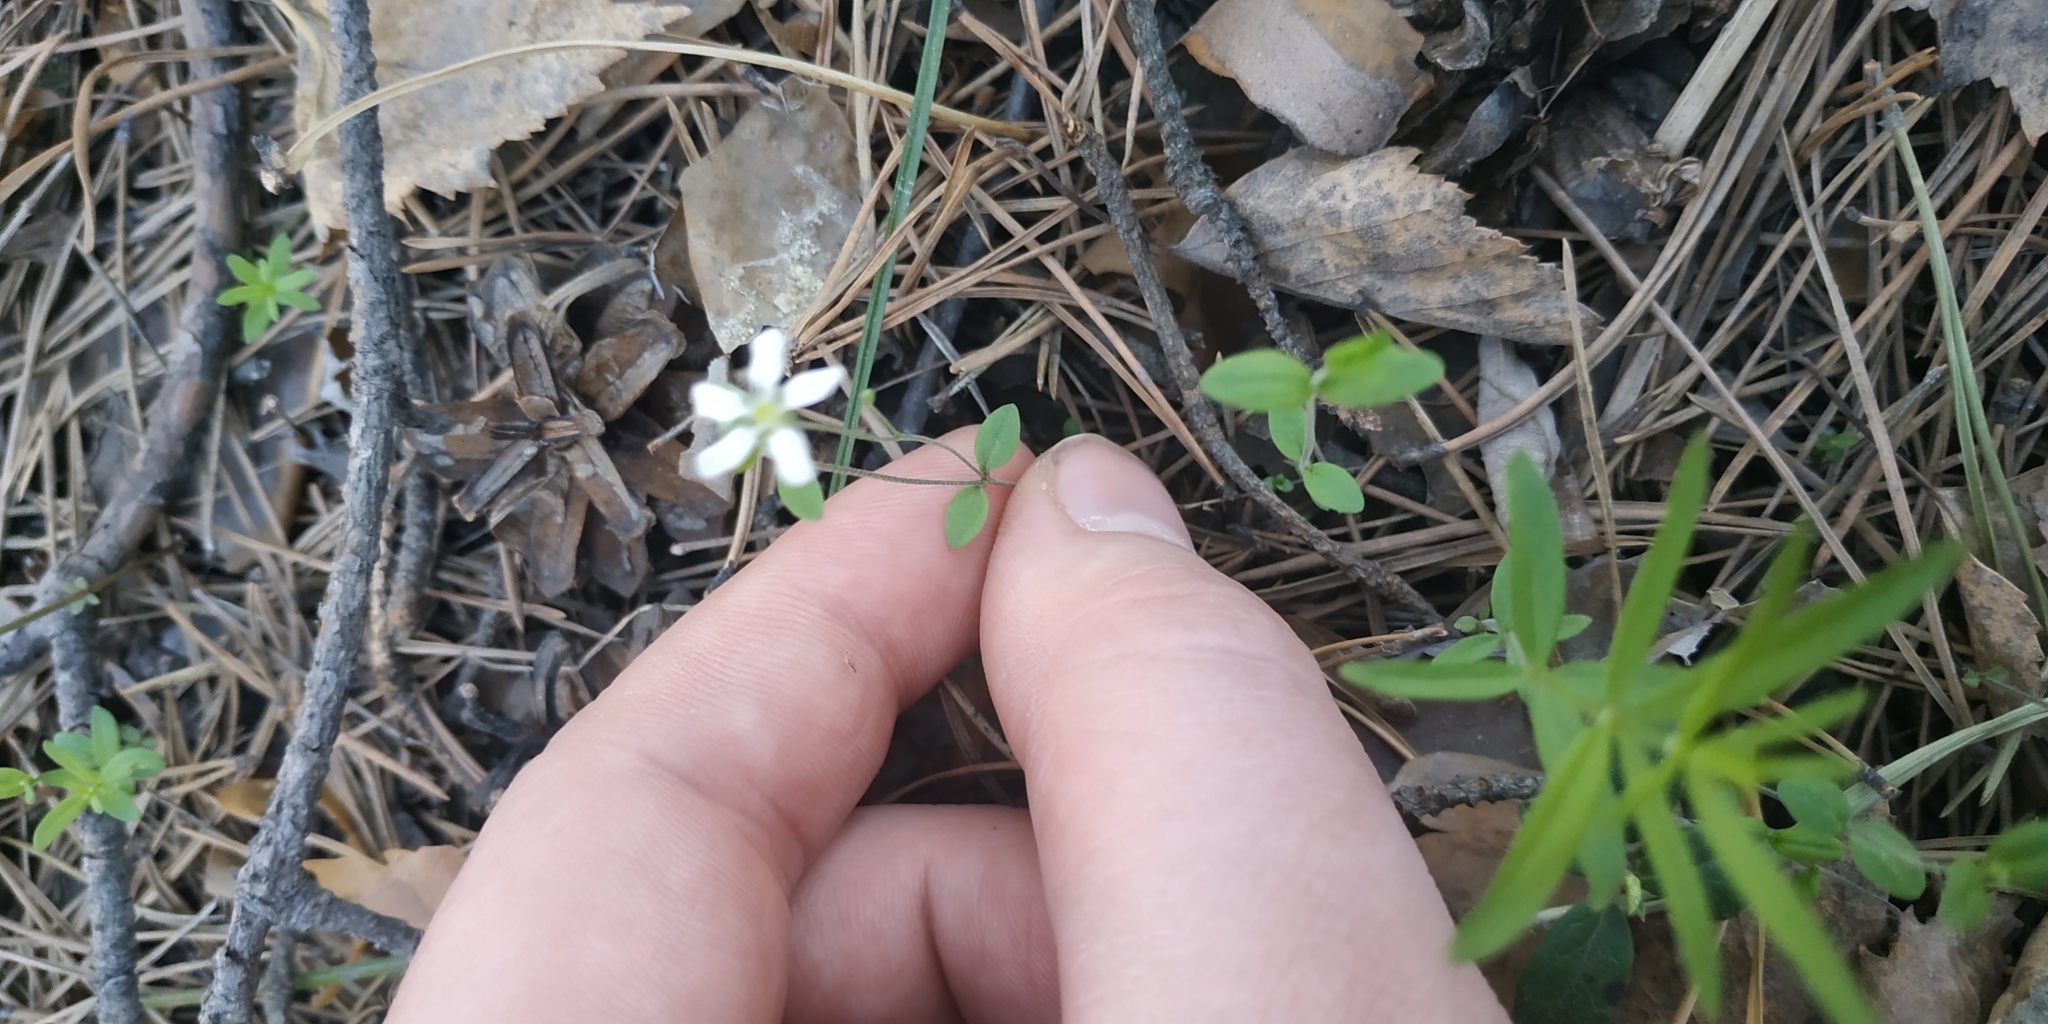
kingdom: Plantae
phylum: Tracheophyta
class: Magnoliopsida
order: Caryophyllales
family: Caryophyllaceae
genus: Moehringia
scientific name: Moehringia lateriflora
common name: Blunt-leaved sandwort
